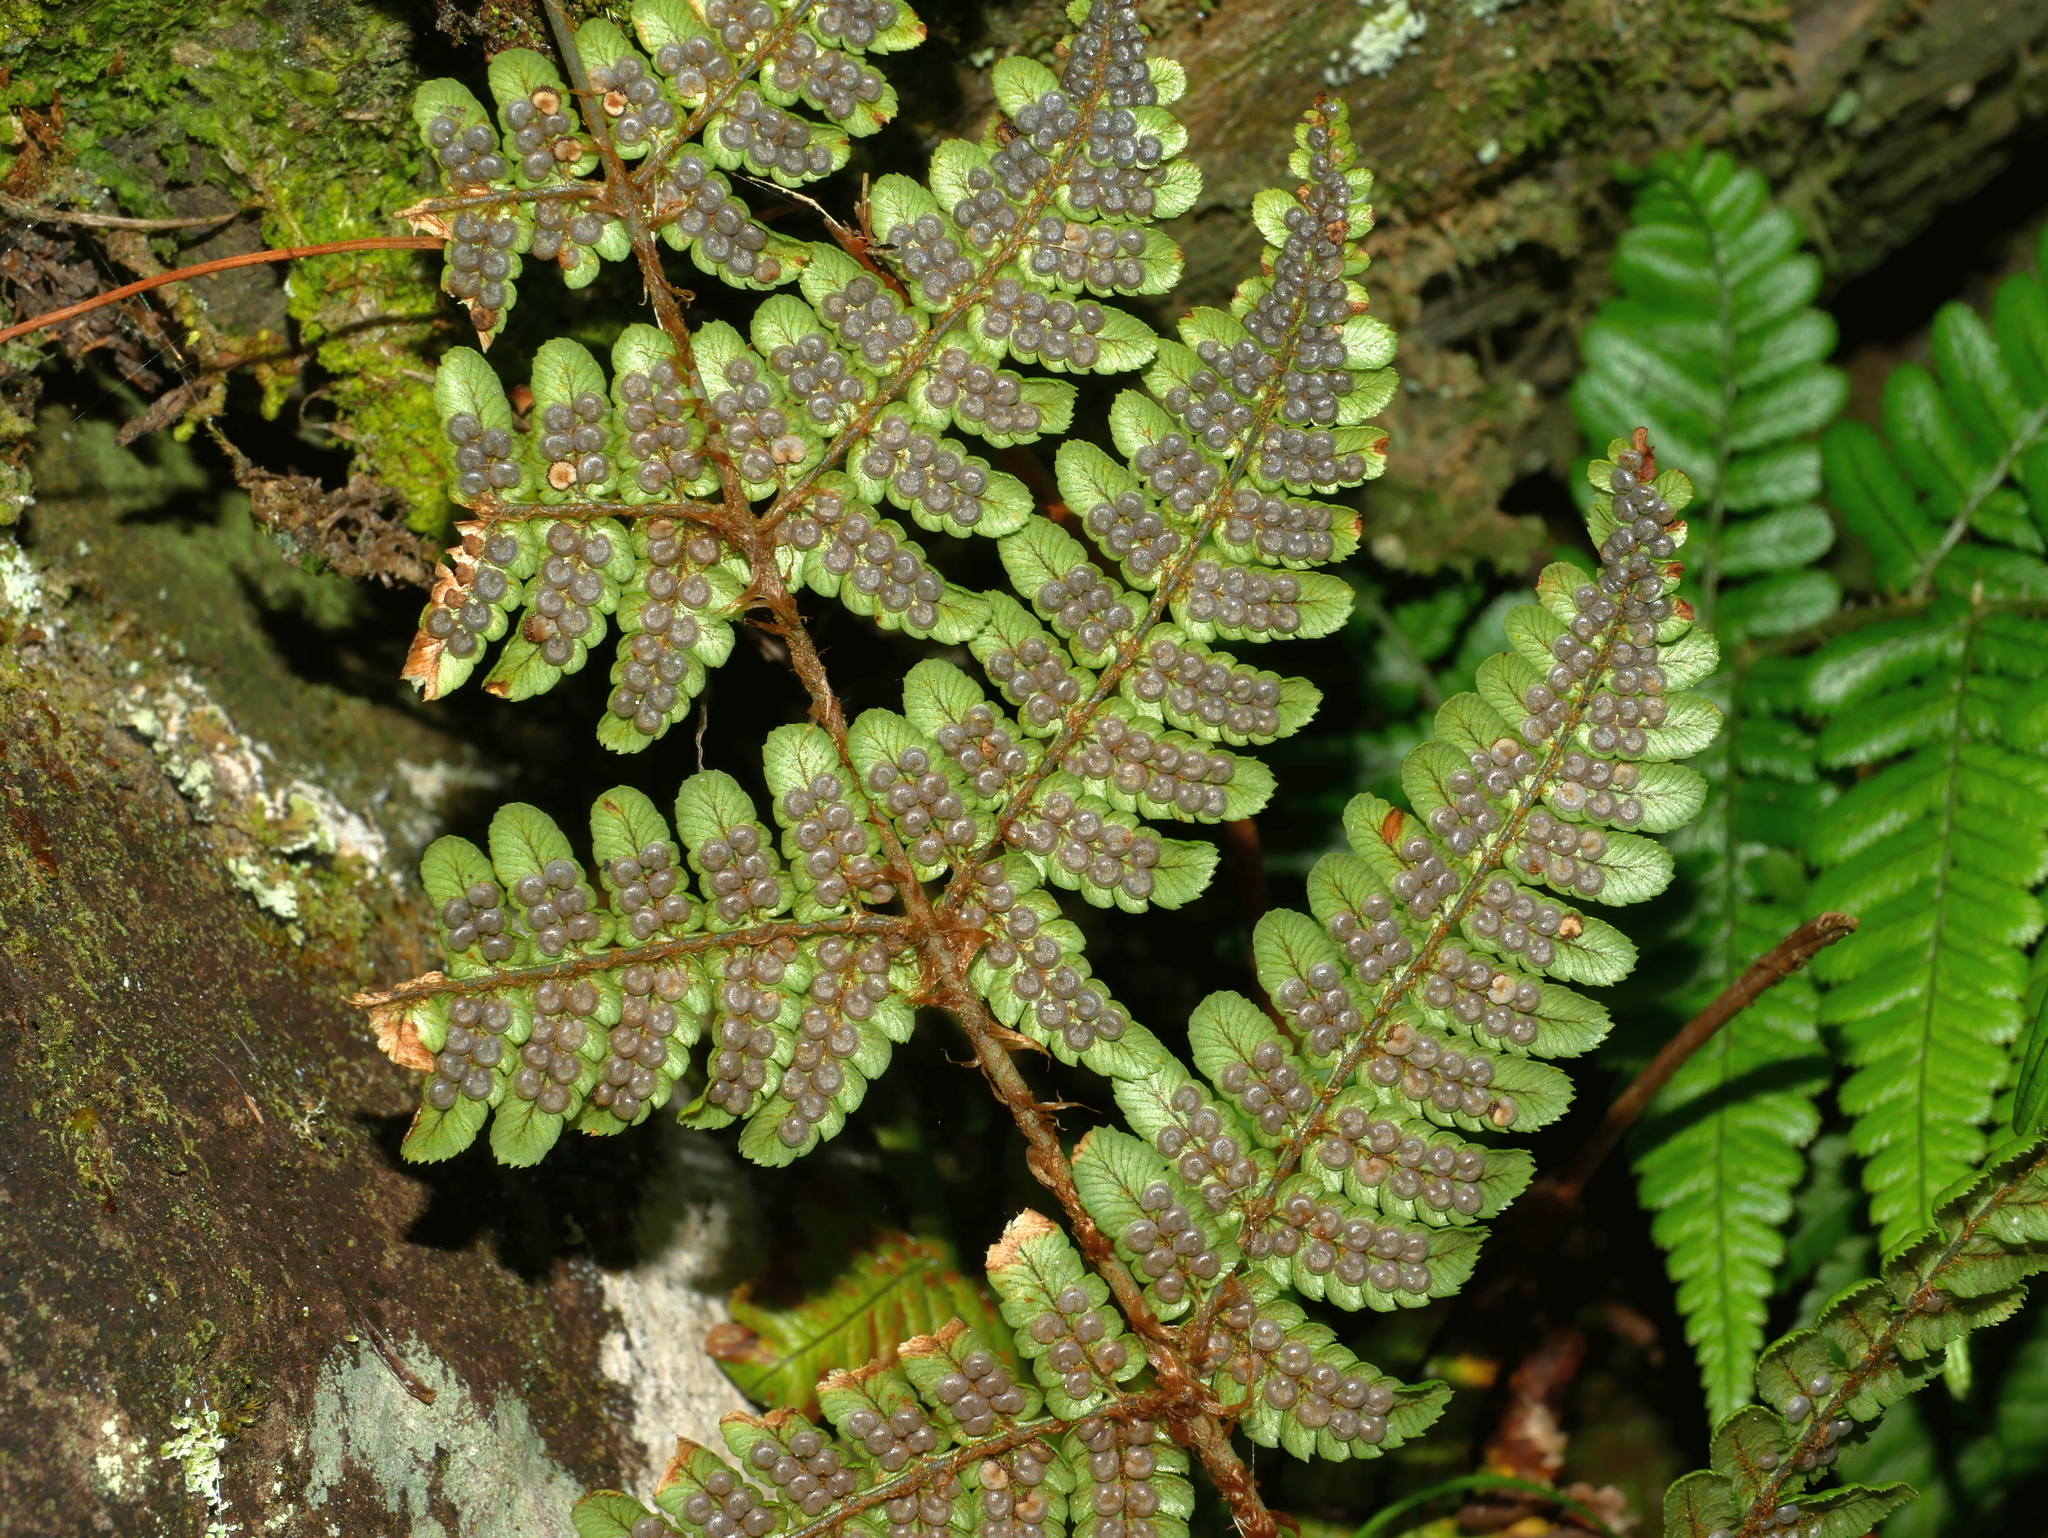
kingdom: Plantae
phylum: Tracheophyta
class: Polypodiopsida
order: Polypodiales
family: Dryopteridaceae
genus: Dryopteris
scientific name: Dryopteris fructuosa
